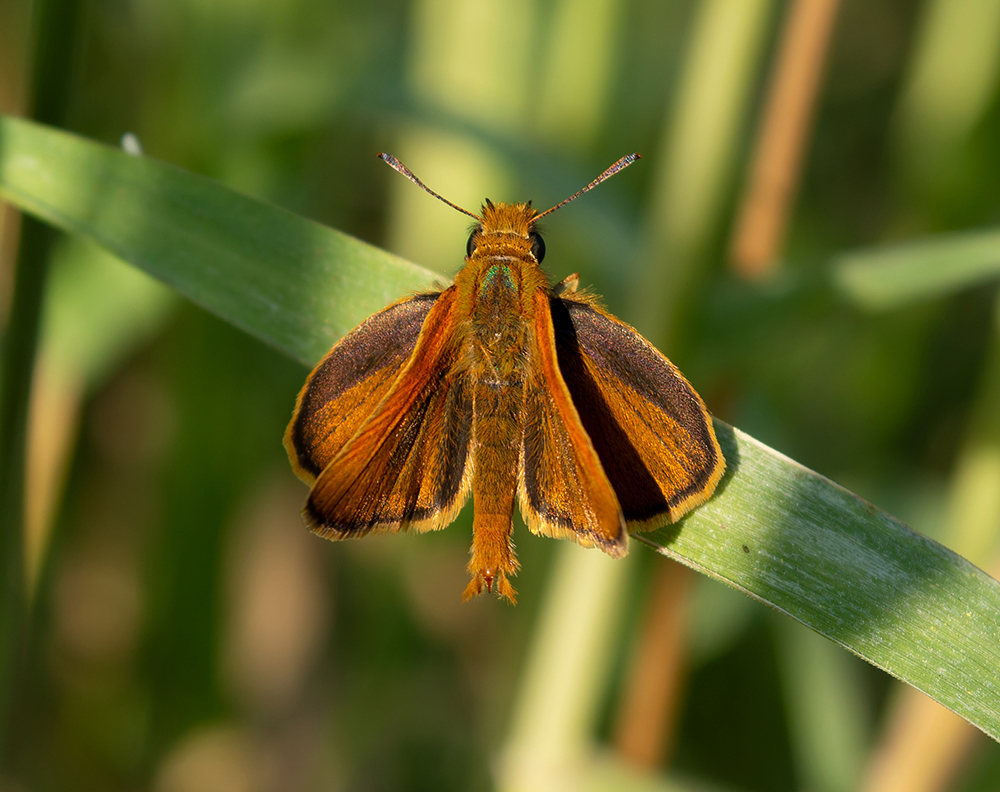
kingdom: Animalia
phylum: Arthropoda
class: Insecta
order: Lepidoptera
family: Hesperiidae
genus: Thymelicus
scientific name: Thymelicus acteon
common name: Lulworth skipper
